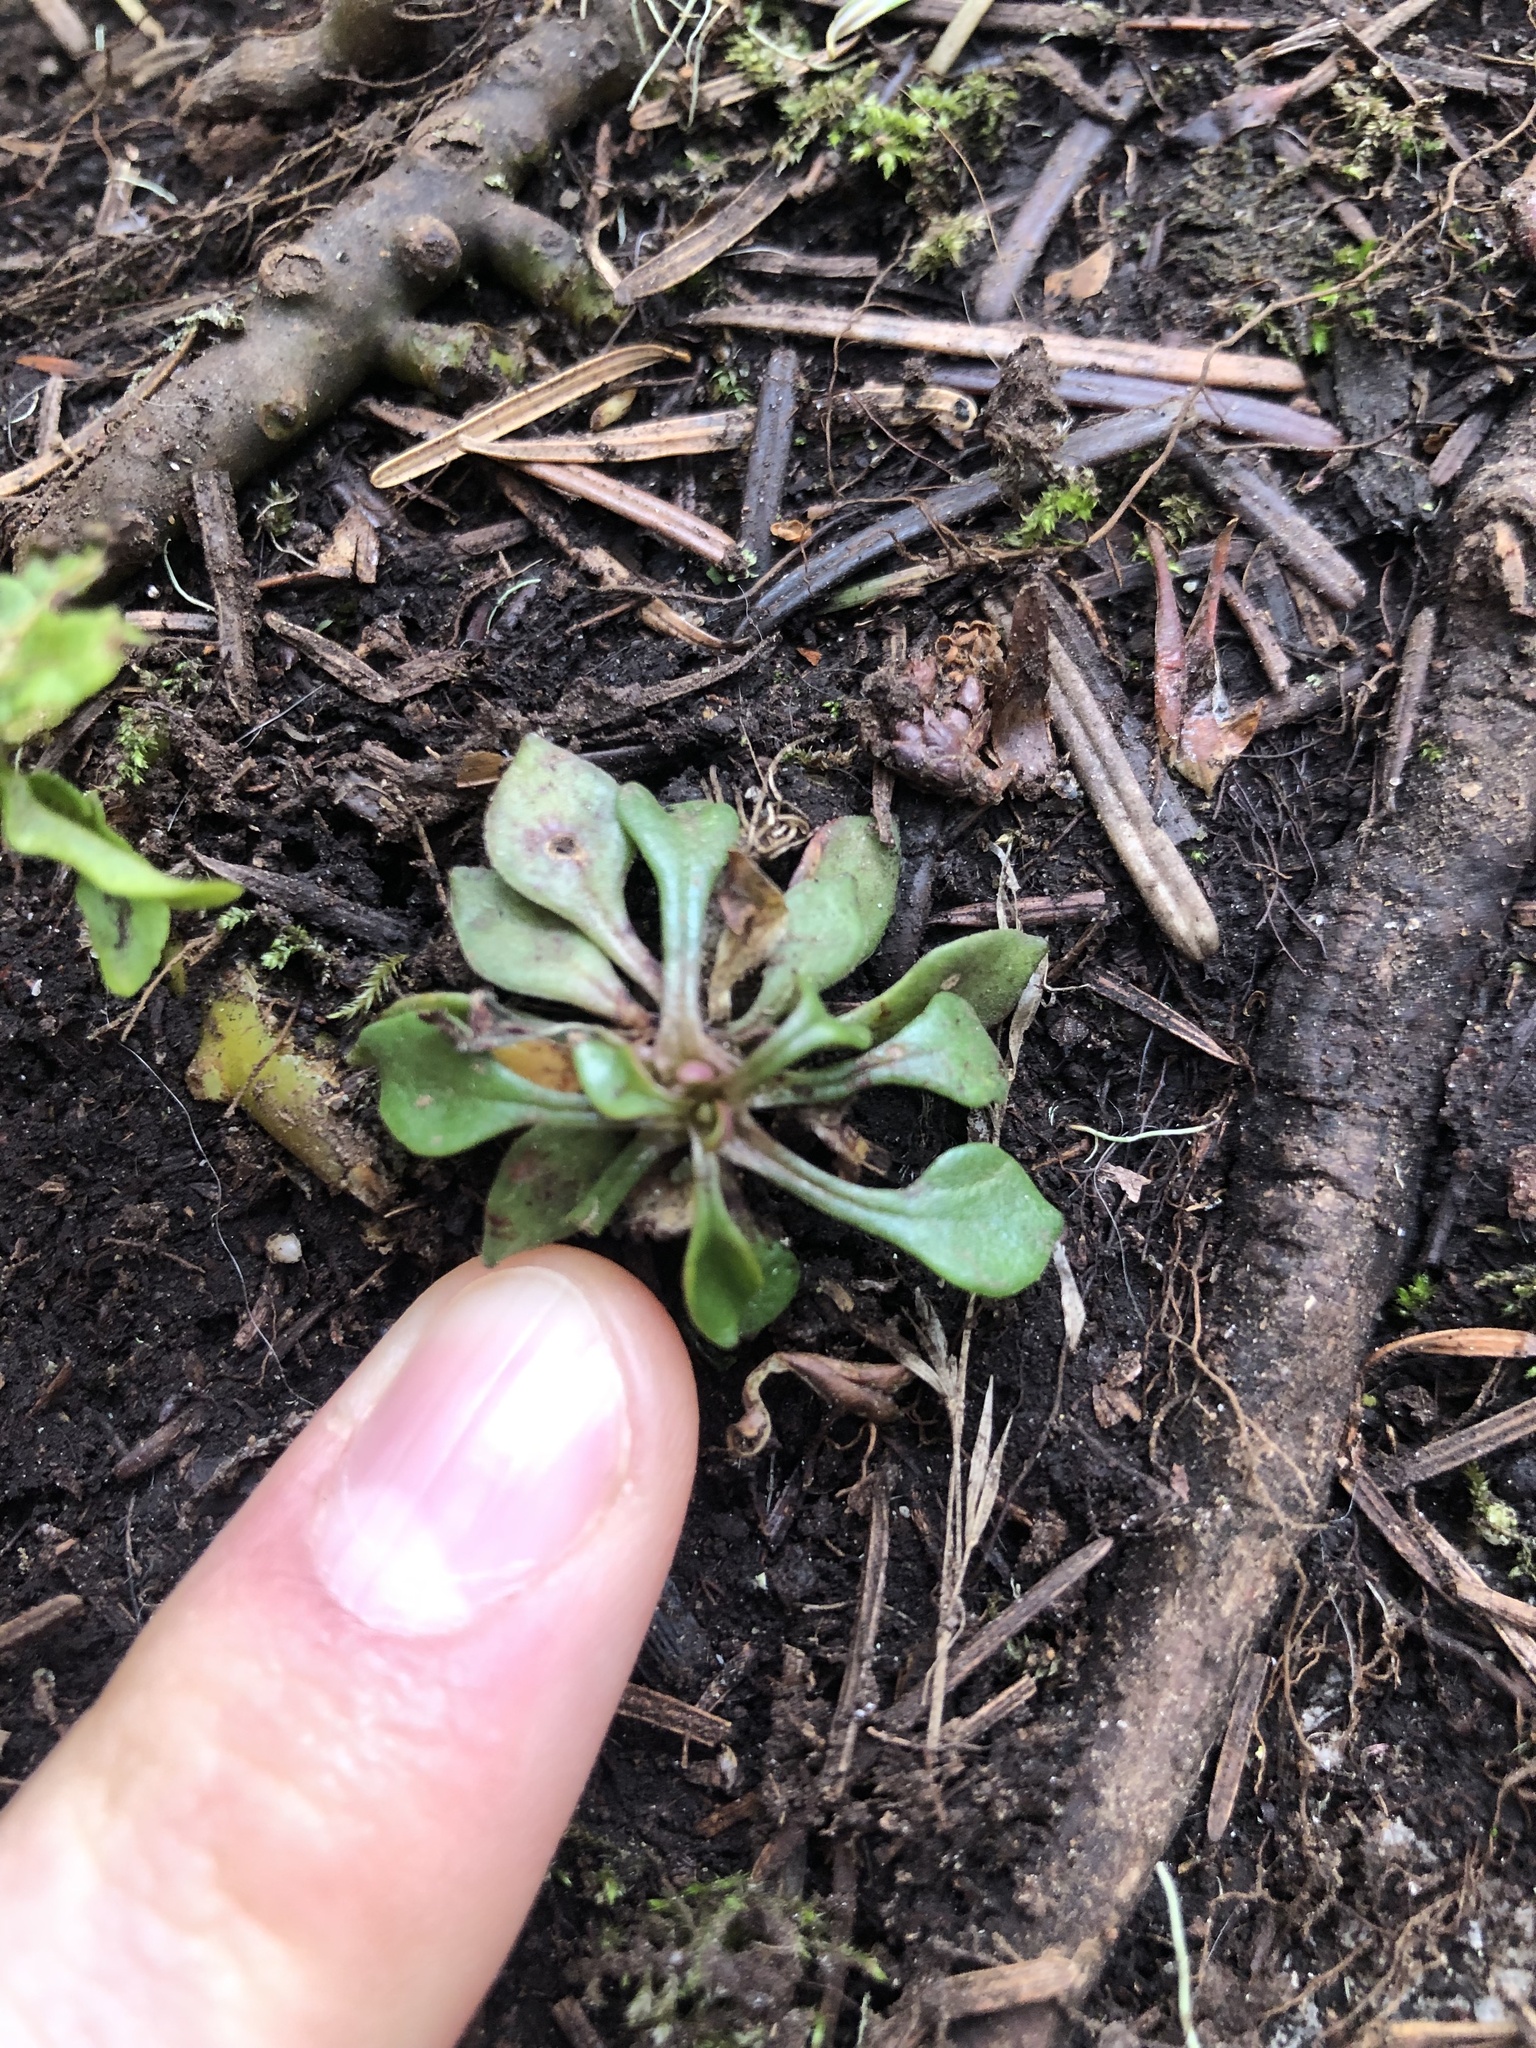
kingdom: Plantae
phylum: Tracheophyta
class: Magnoliopsida
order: Caryophyllales
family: Montiaceae
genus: Montia
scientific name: Montia parvifolia
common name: Small-leaved blinks
